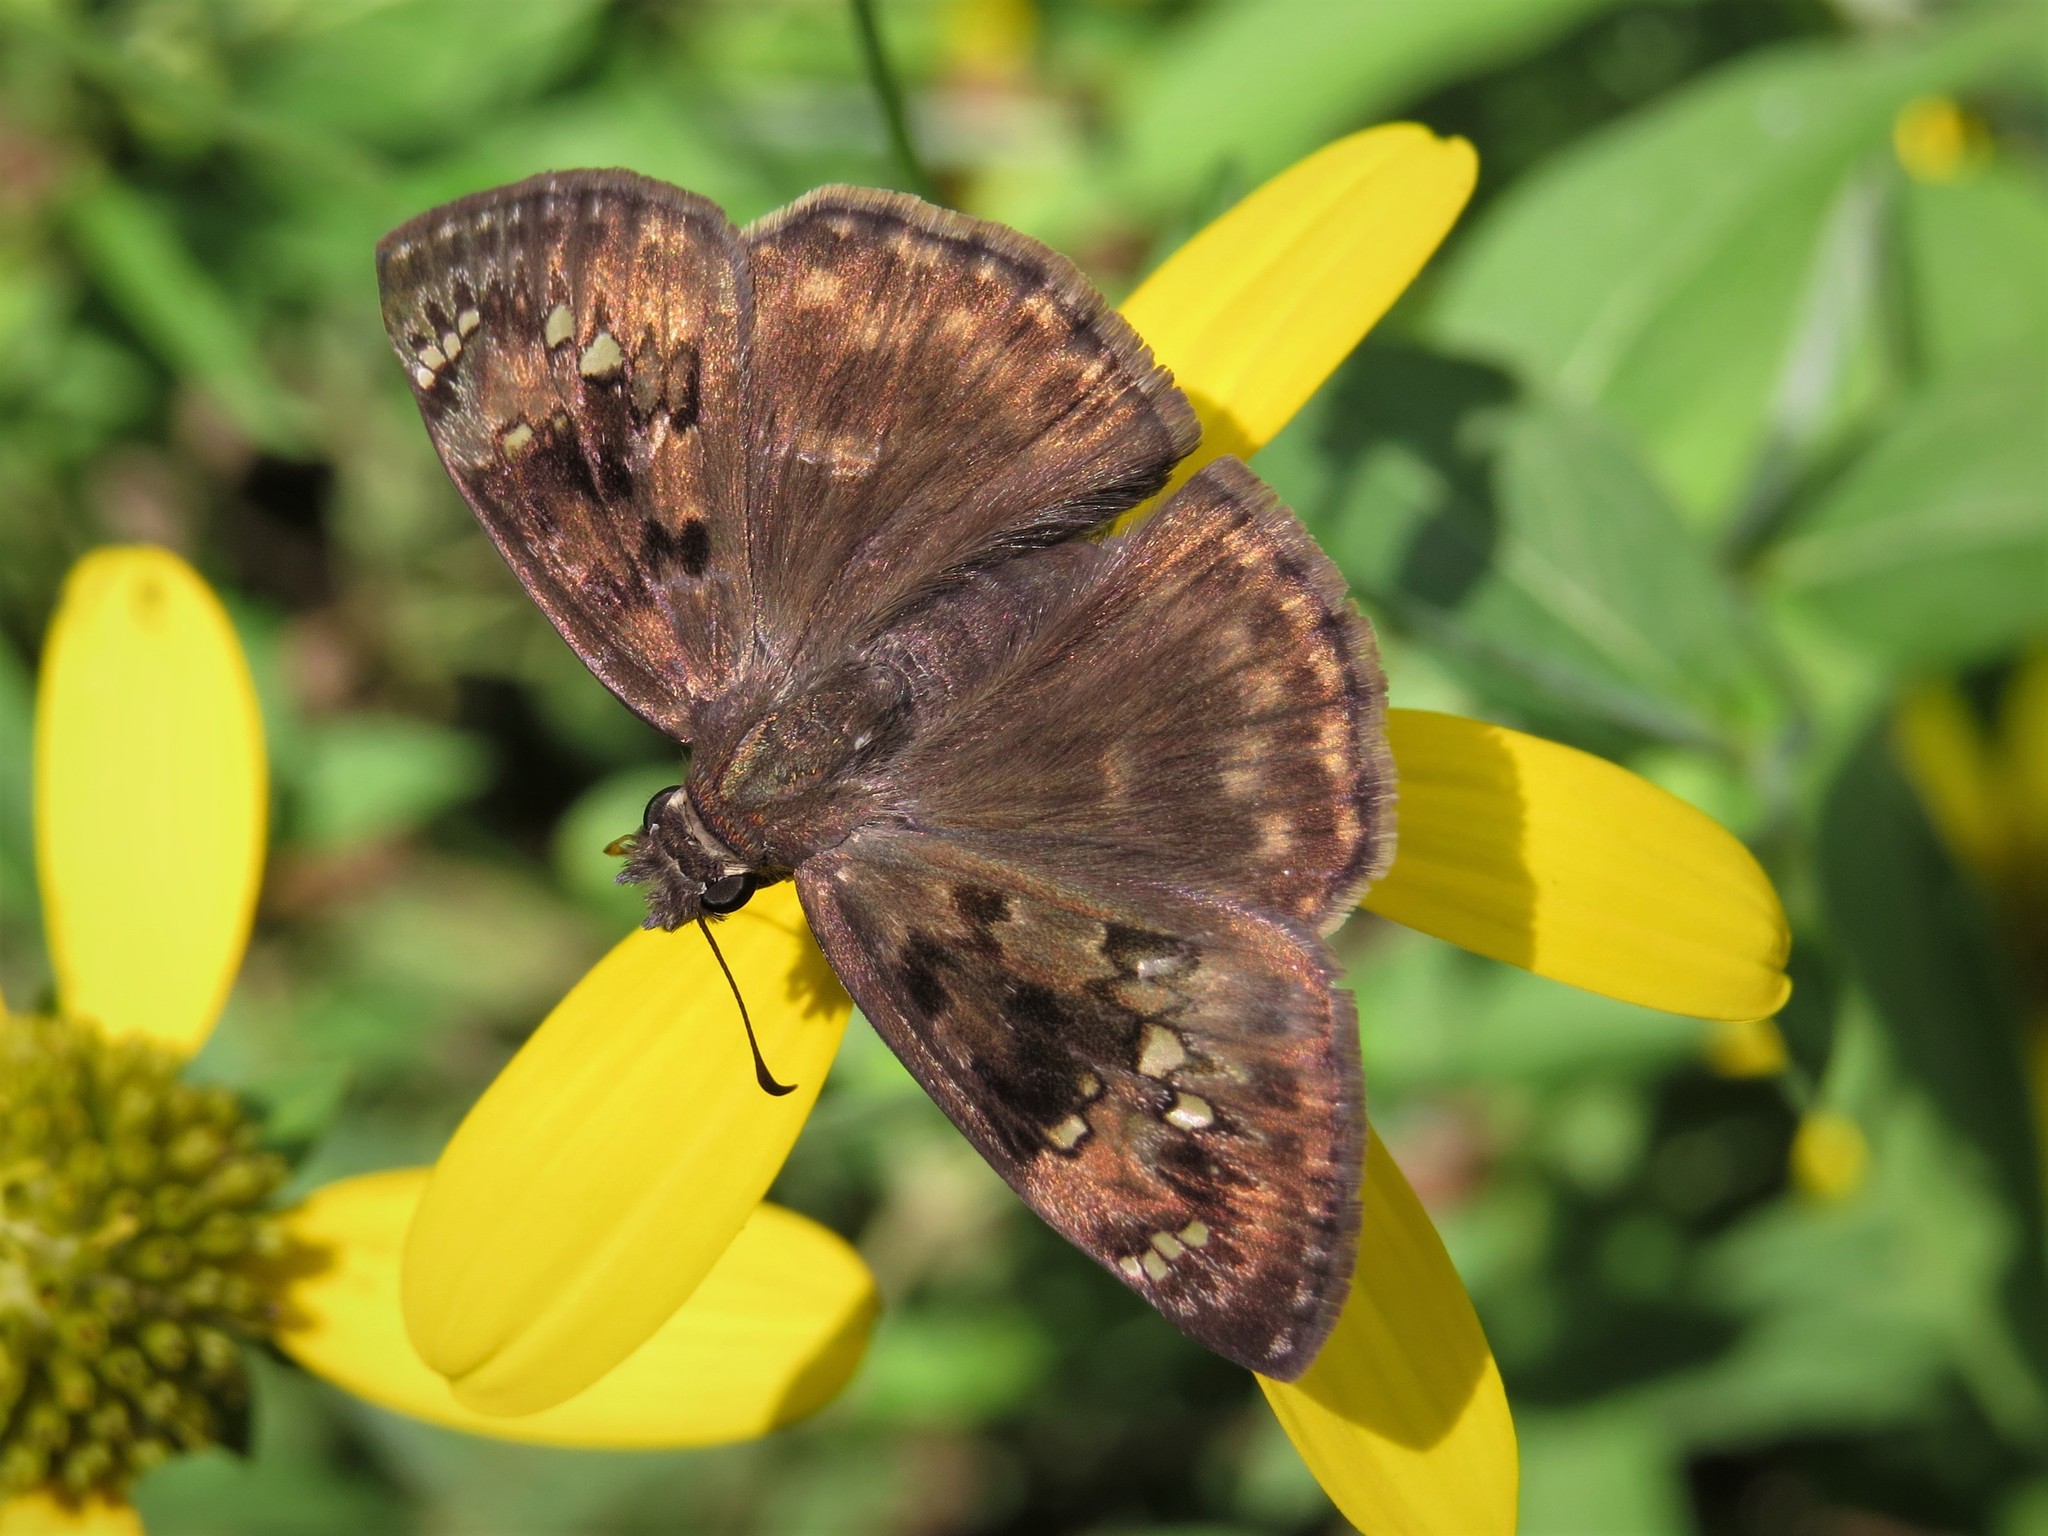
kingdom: Animalia
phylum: Arthropoda
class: Insecta
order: Lepidoptera
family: Hesperiidae
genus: Erynnis
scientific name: Erynnis horatius
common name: Horace's duskywing
